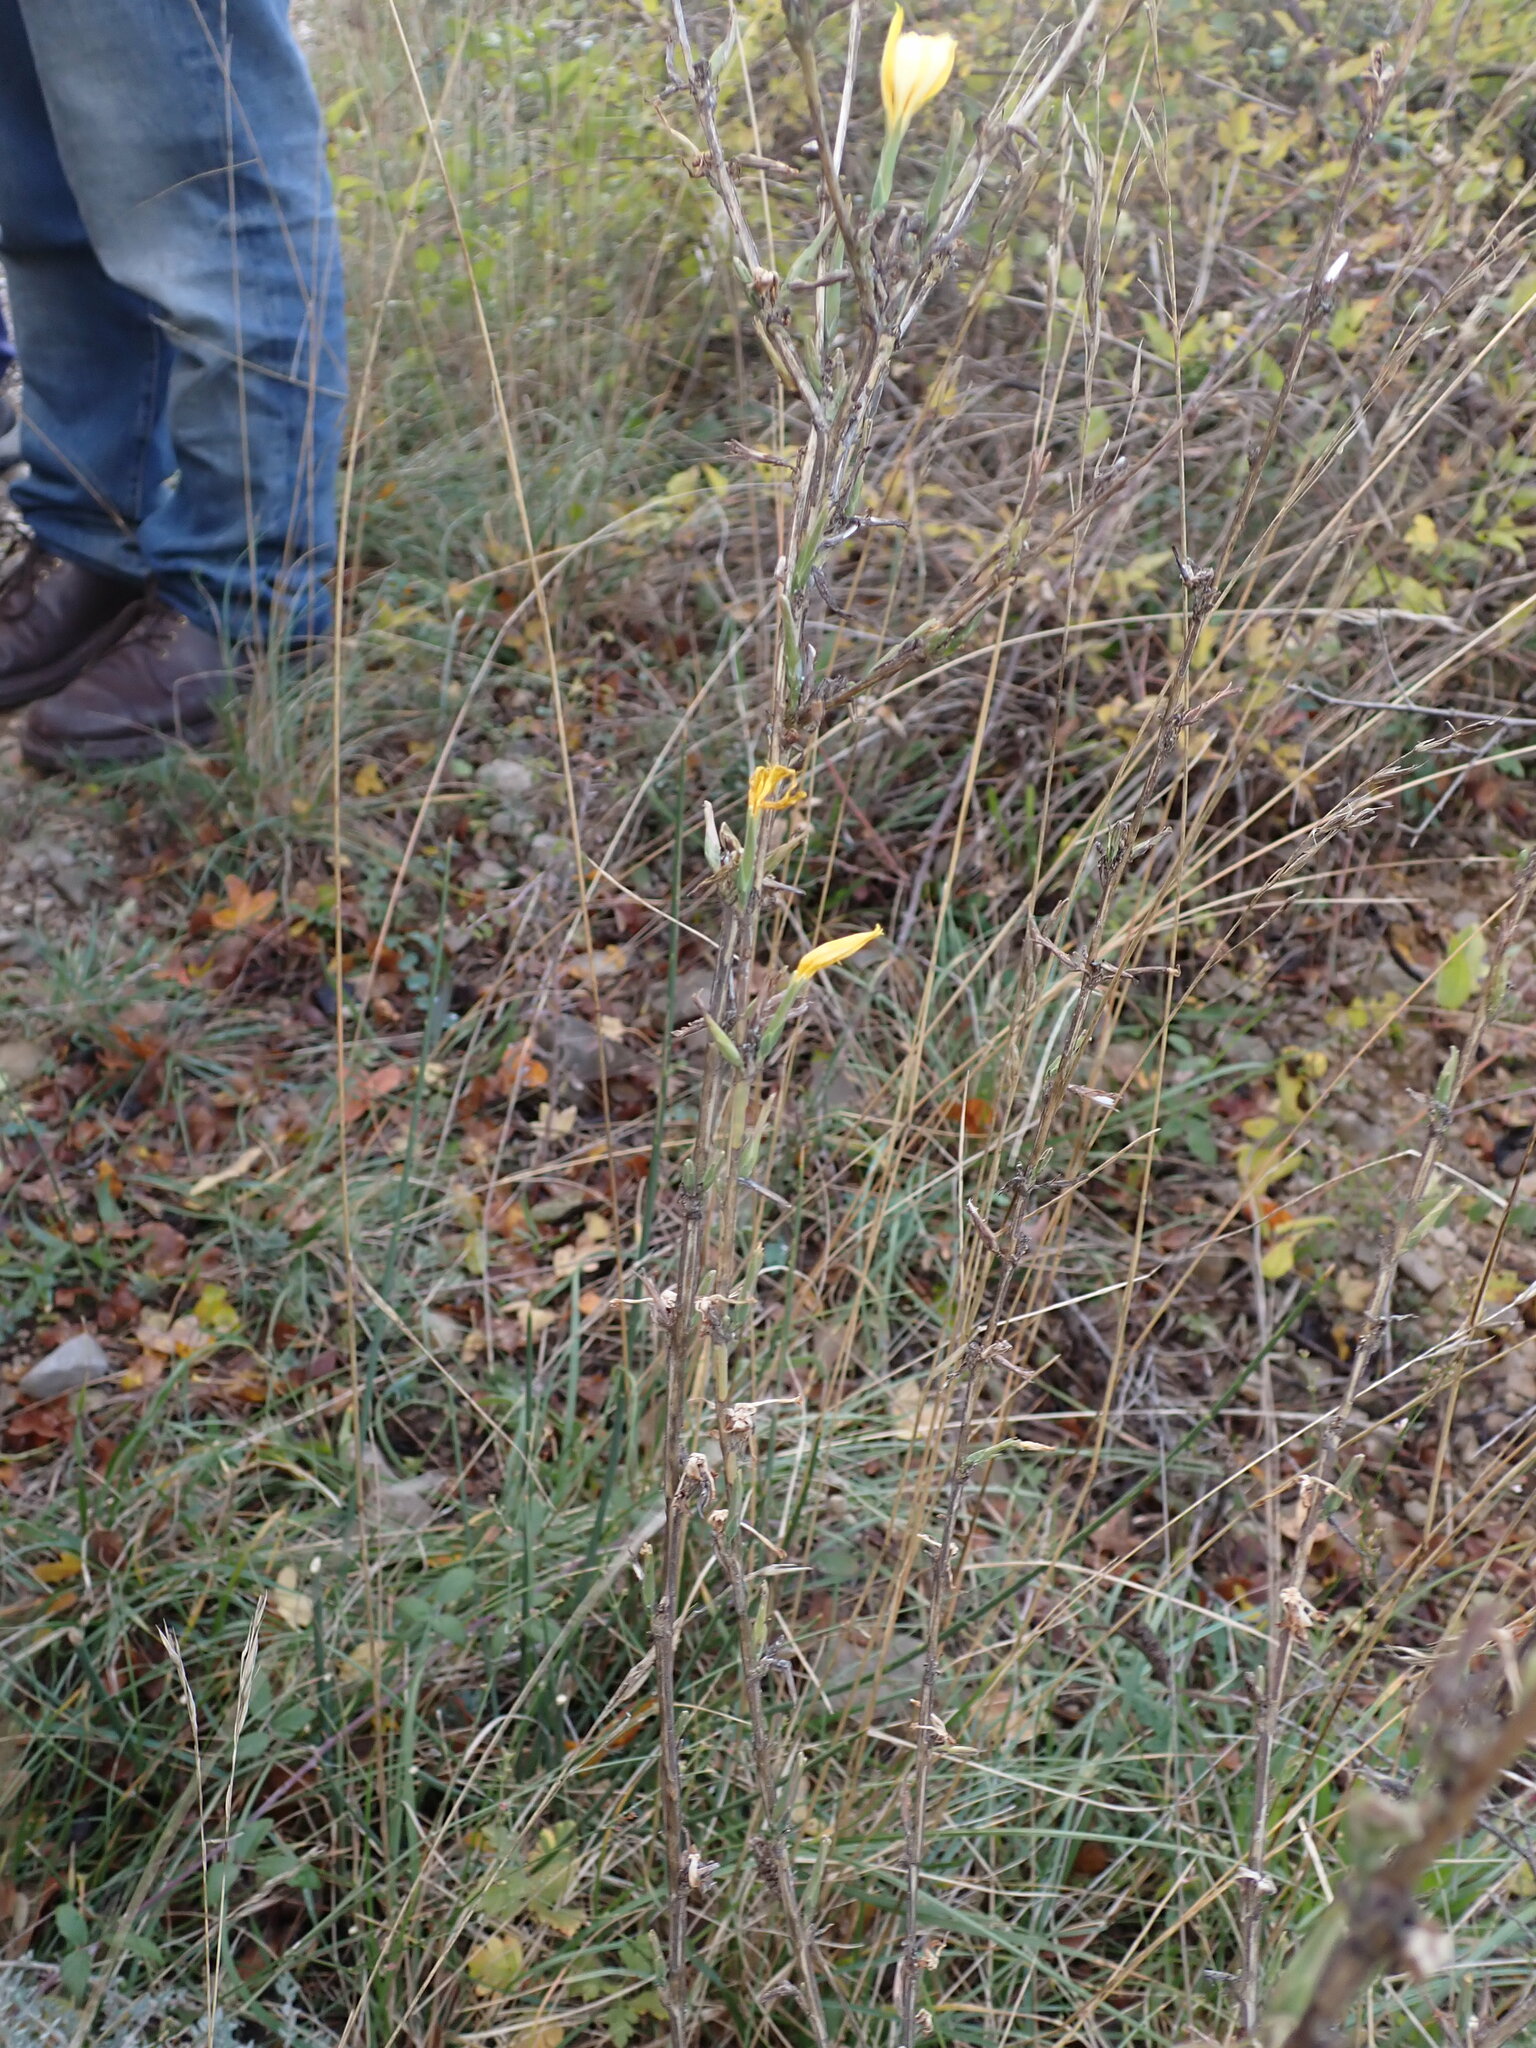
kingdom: Plantae
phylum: Tracheophyta
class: Magnoliopsida
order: Asterales
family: Asteraceae
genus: Lactuca
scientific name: Lactuca viminea
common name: Pliant lettuce
